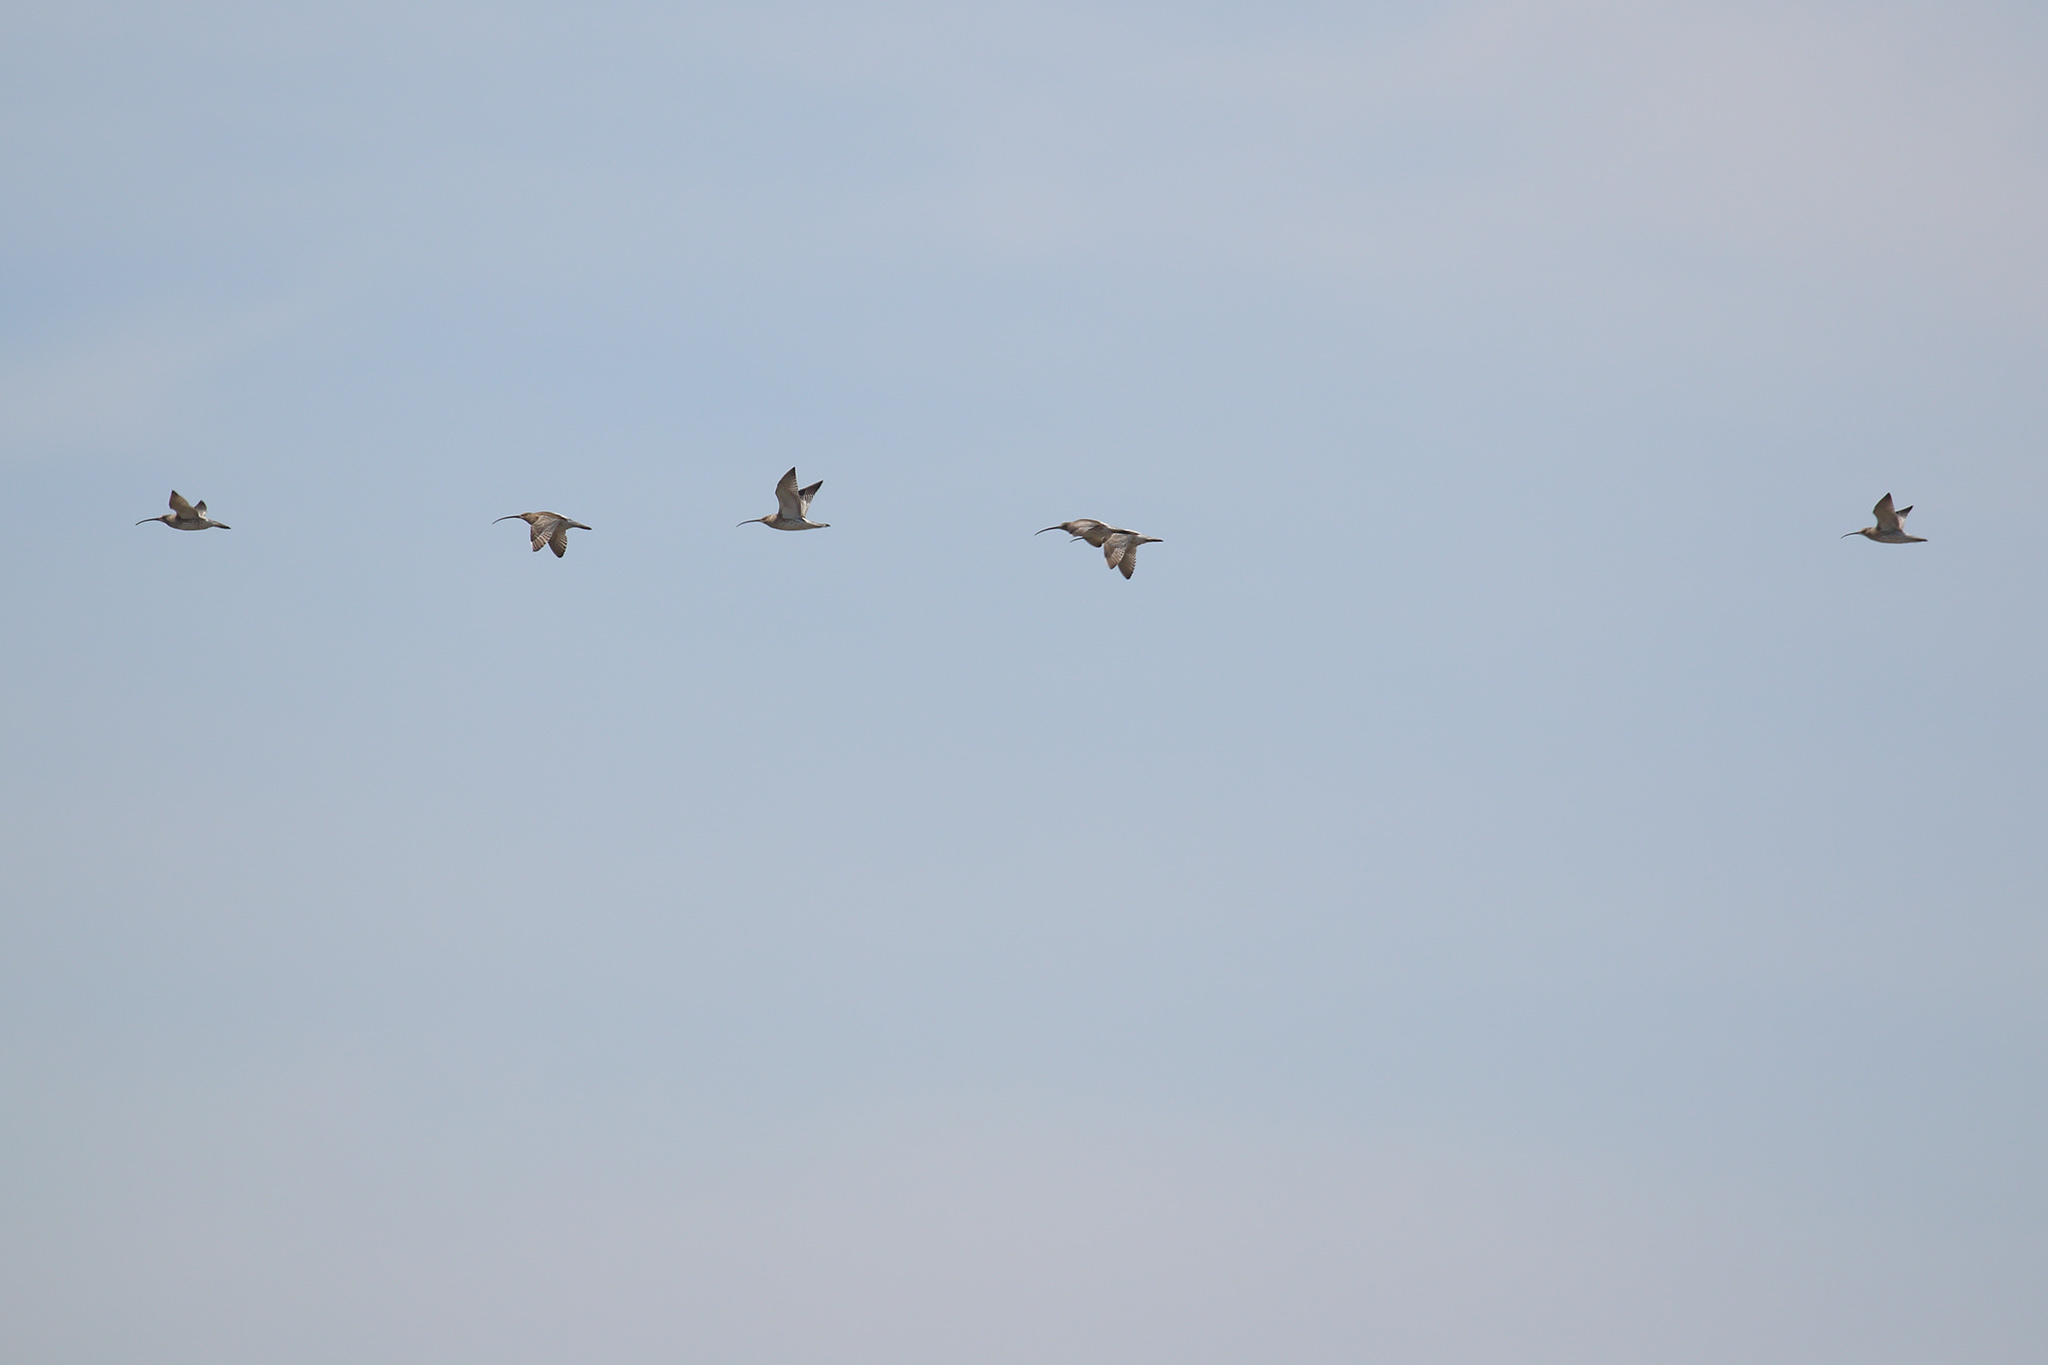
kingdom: Animalia
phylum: Chordata
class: Aves
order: Charadriiformes
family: Scolopacidae
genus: Numenius
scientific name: Numenius arquata
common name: Eurasian curlew
